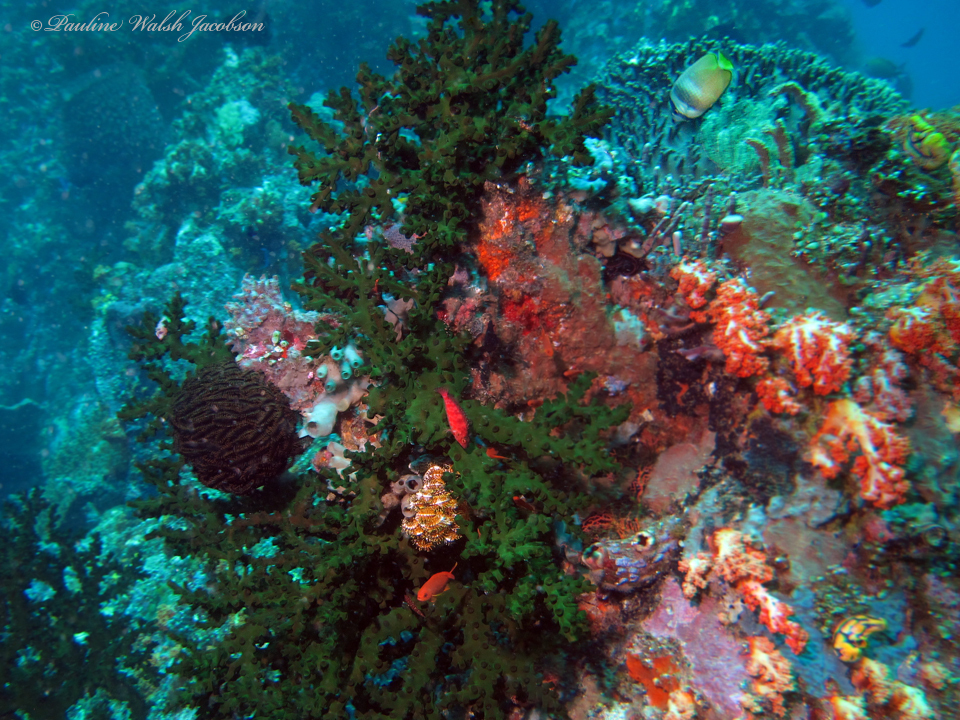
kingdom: Animalia
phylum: Chordata
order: Perciformes
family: Chaetodontidae
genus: Chaetodon
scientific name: Chaetodon kleinii
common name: Klein's butterflyfish
